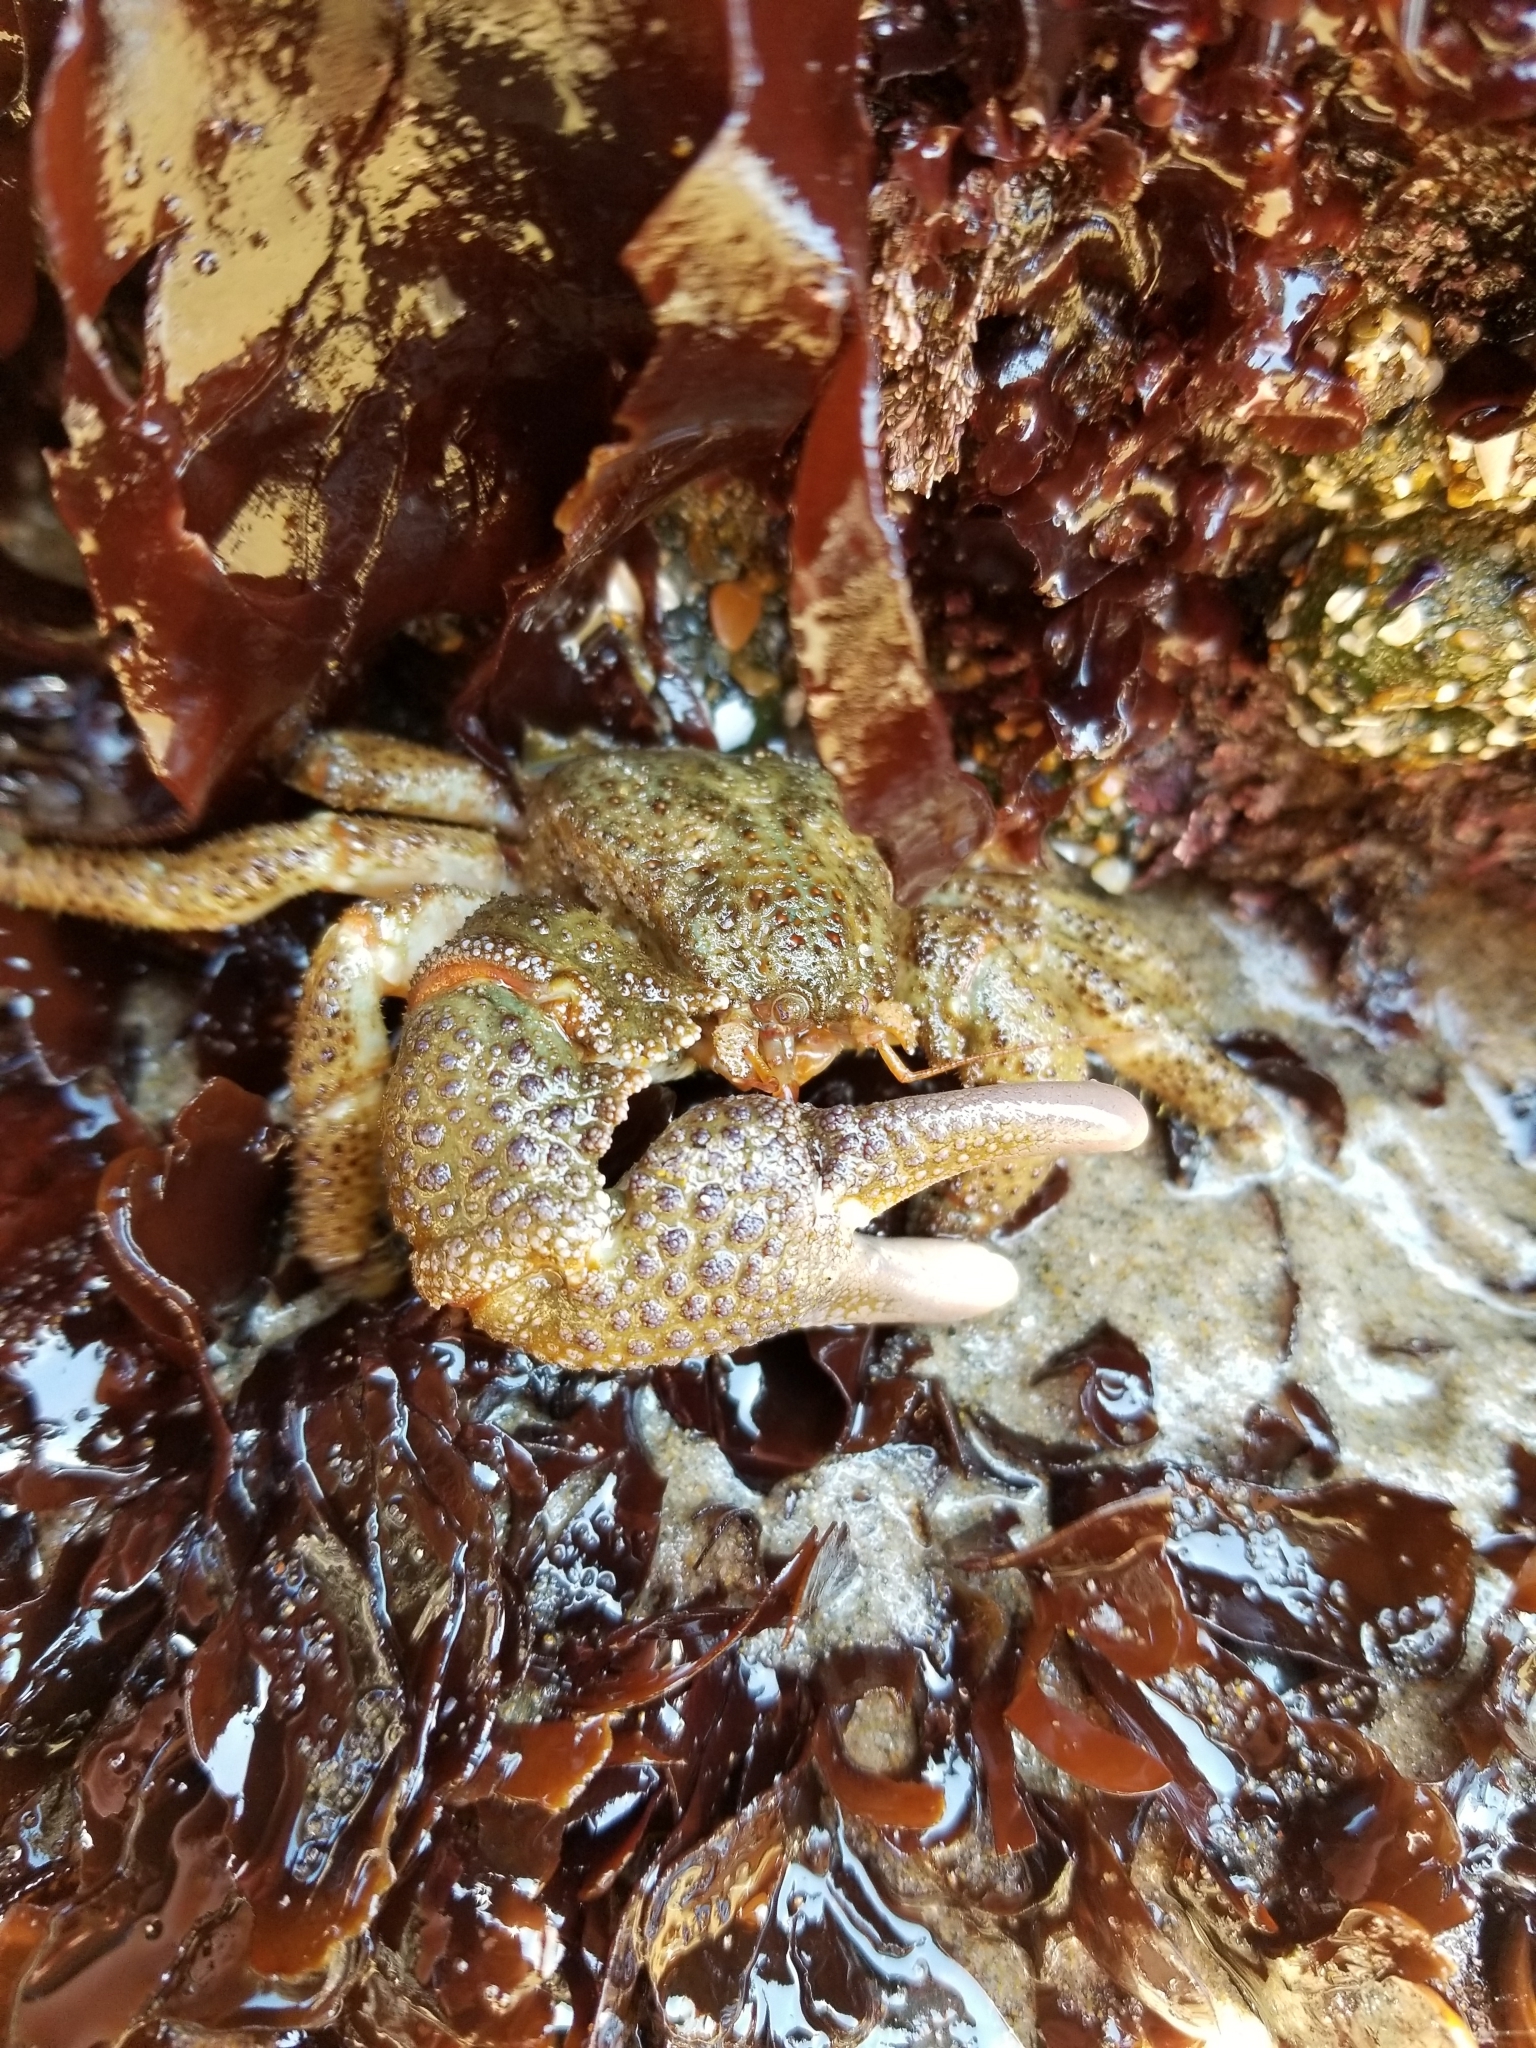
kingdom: Animalia
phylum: Arthropoda
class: Malacostraca
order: Decapoda
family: Hapalogastridae
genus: Oedignathus
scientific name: Oedignathus inermis
